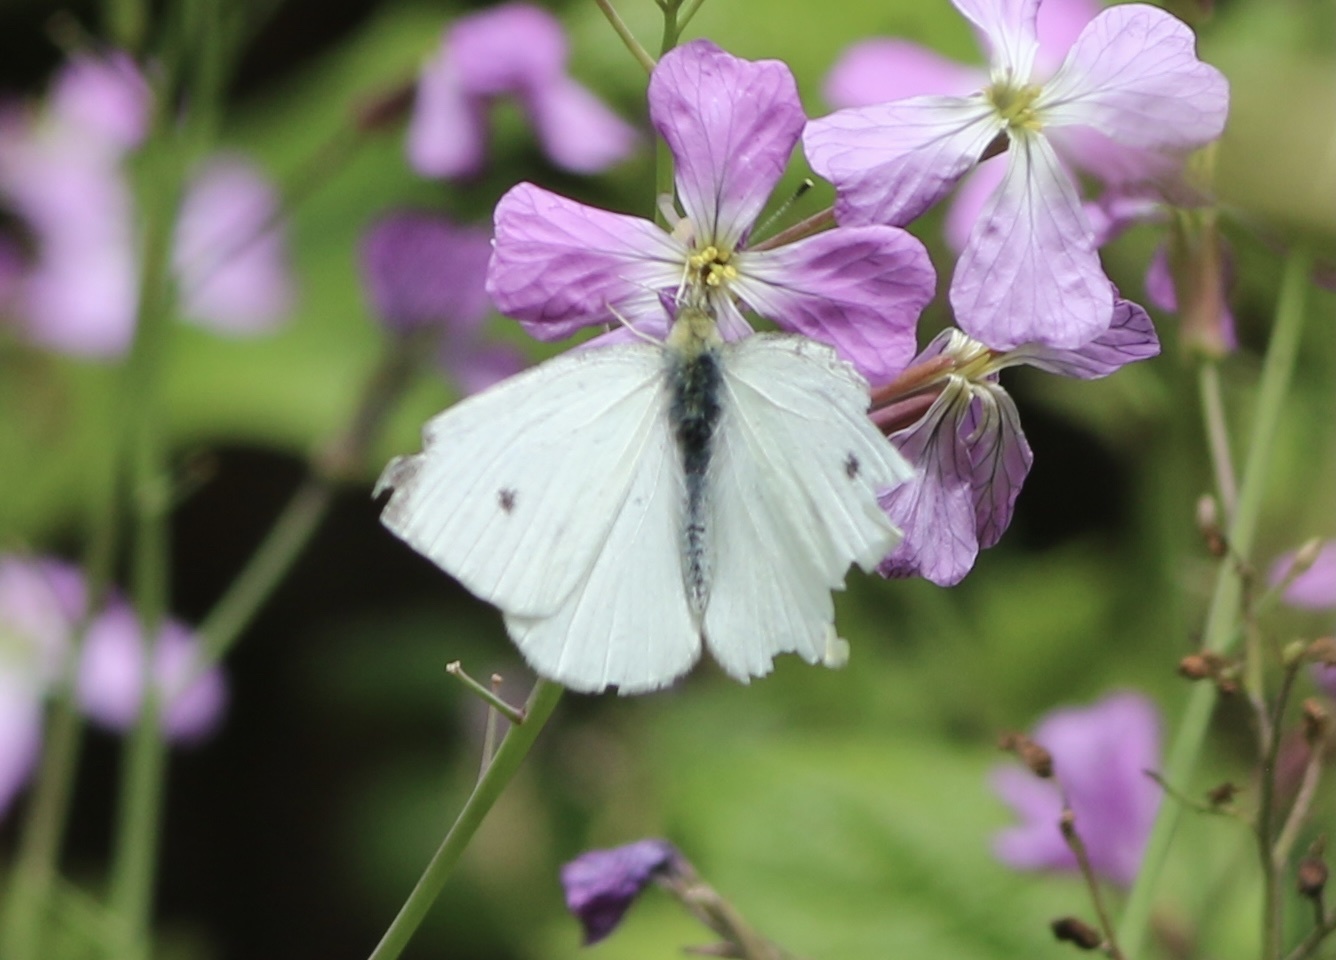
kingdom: Animalia
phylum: Arthropoda
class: Insecta
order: Lepidoptera
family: Pieridae
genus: Pieris
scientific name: Pieris rapae
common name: Small white
